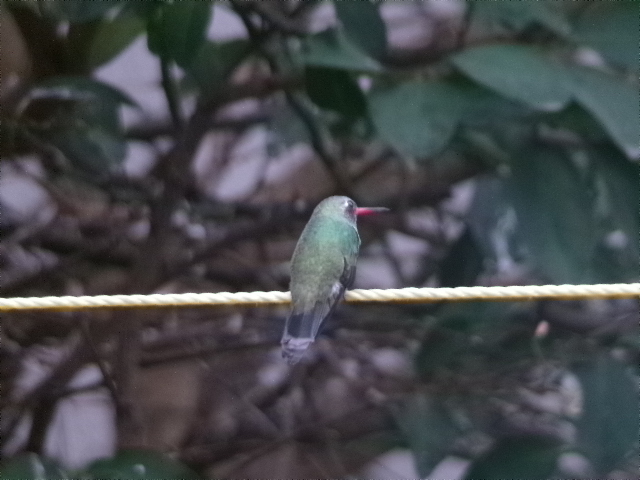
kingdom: Animalia
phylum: Chordata
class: Aves
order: Apodiformes
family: Trochilidae
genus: Cynanthus
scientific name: Cynanthus latirostris
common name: Broad-billed hummingbird
